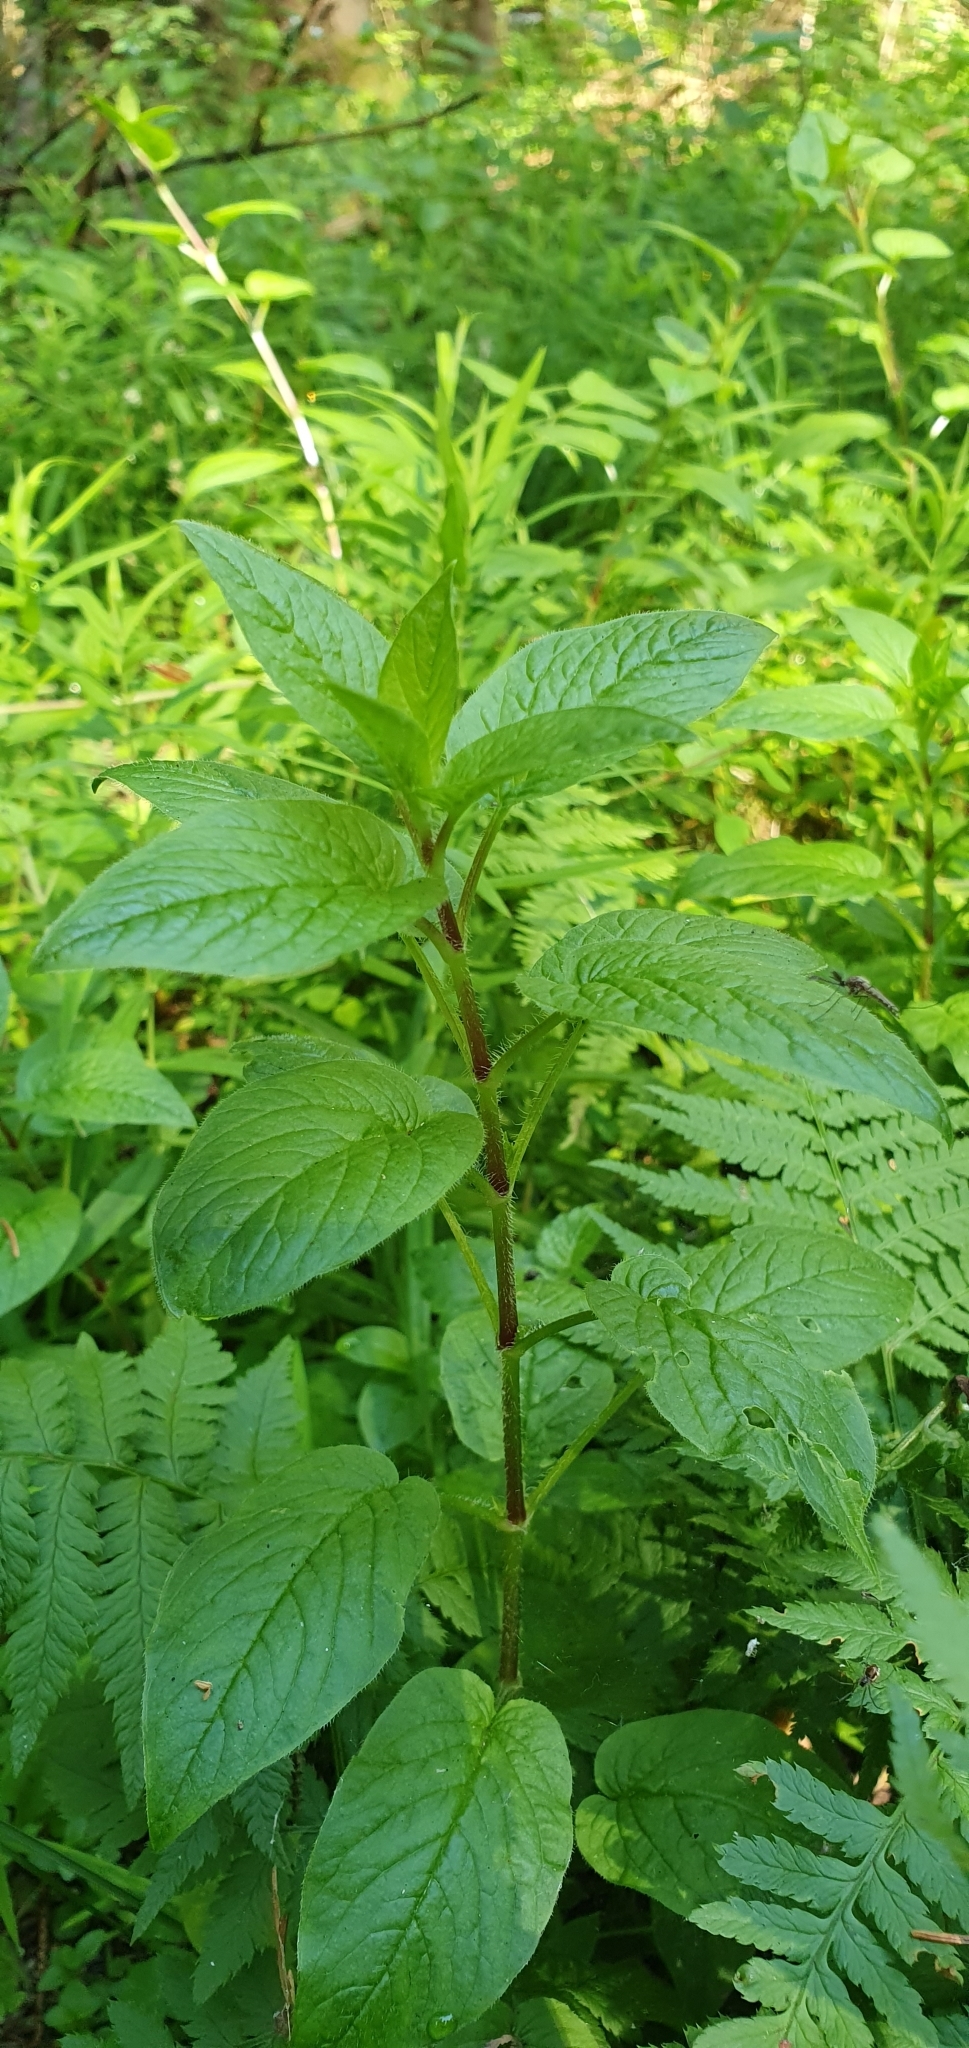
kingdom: Plantae
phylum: Tracheophyta
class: Magnoliopsida
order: Caryophyllales
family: Caryophyllaceae
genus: Stellaria
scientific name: Stellaria nemorum
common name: Wood stitchwort
